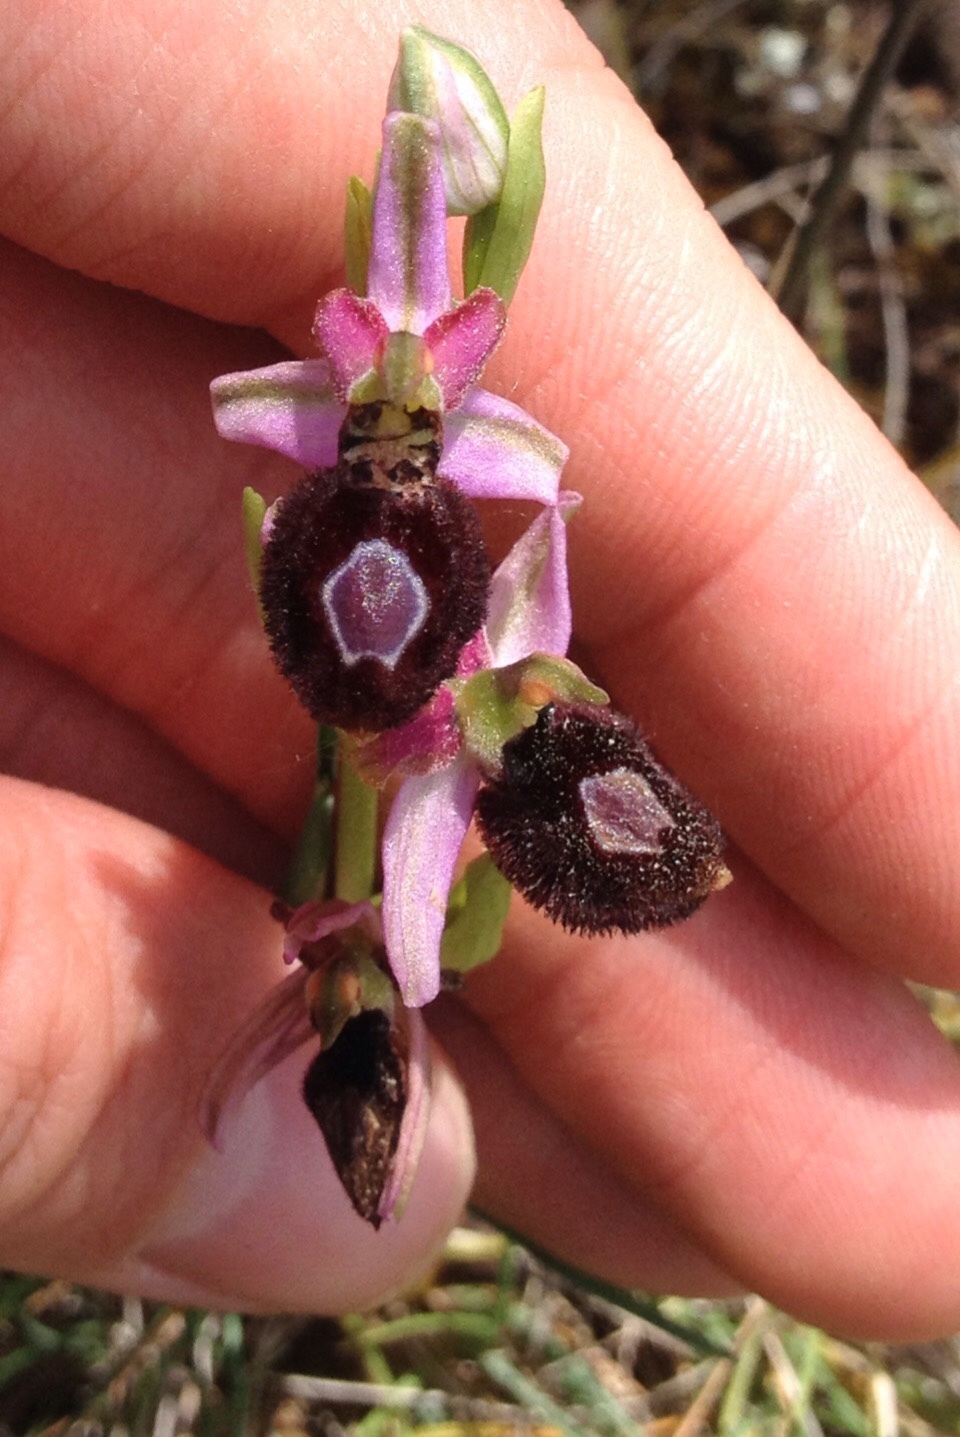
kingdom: Plantae
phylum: Tracheophyta
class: Liliopsida
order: Asparagales
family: Orchidaceae
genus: Ophrys
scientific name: Ophrys flavicans
